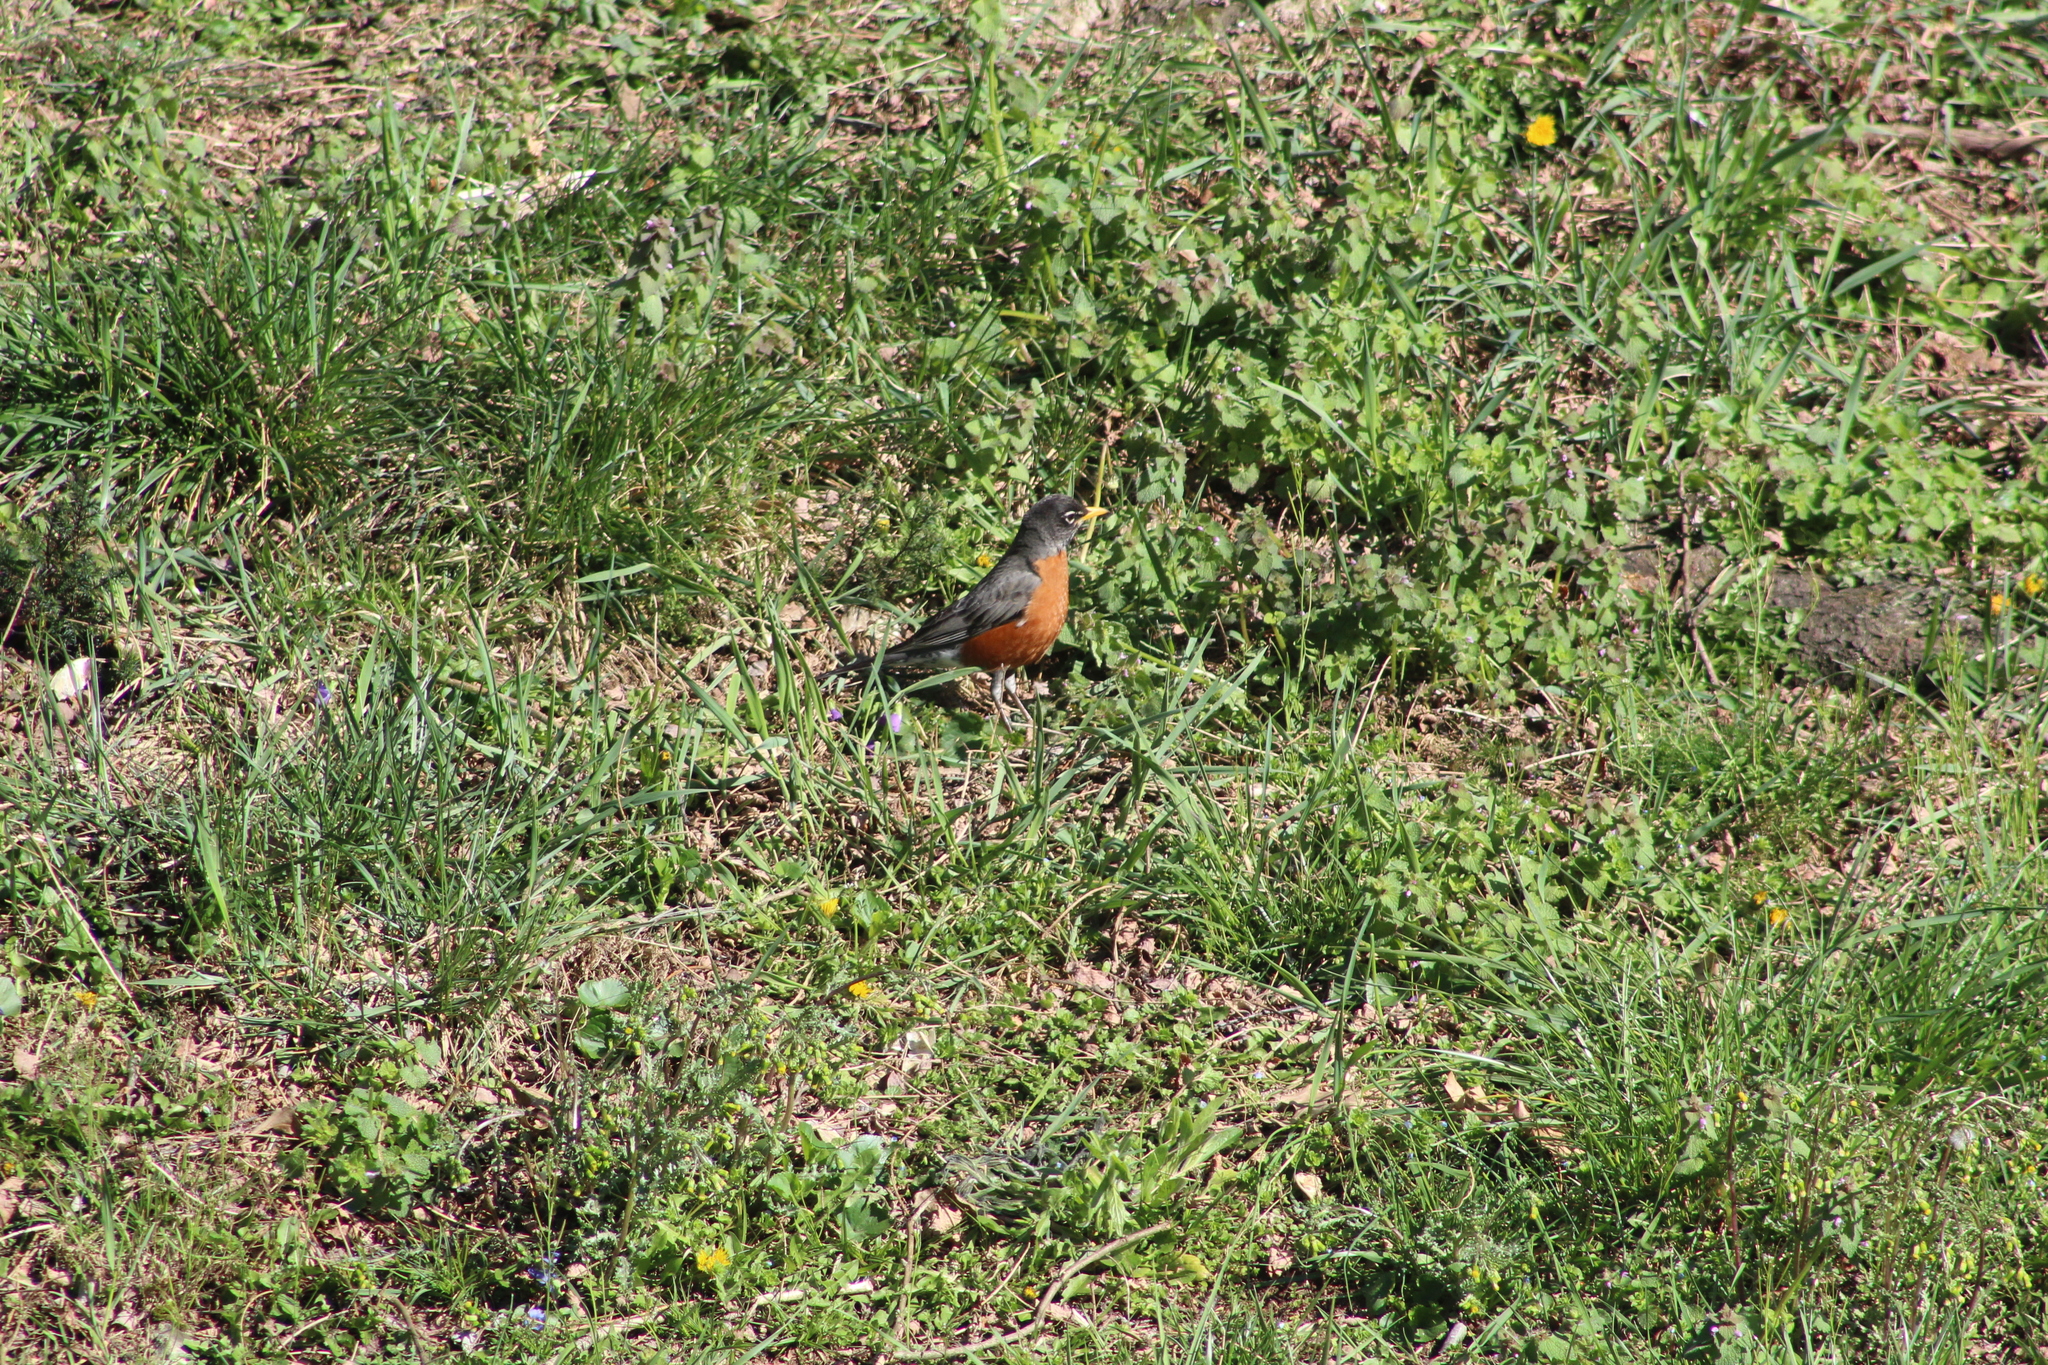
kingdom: Animalia
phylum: Chordata
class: Aves
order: Passeriformes
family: Turdidae
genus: Turdus
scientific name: Turdus migratorius
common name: American robin
